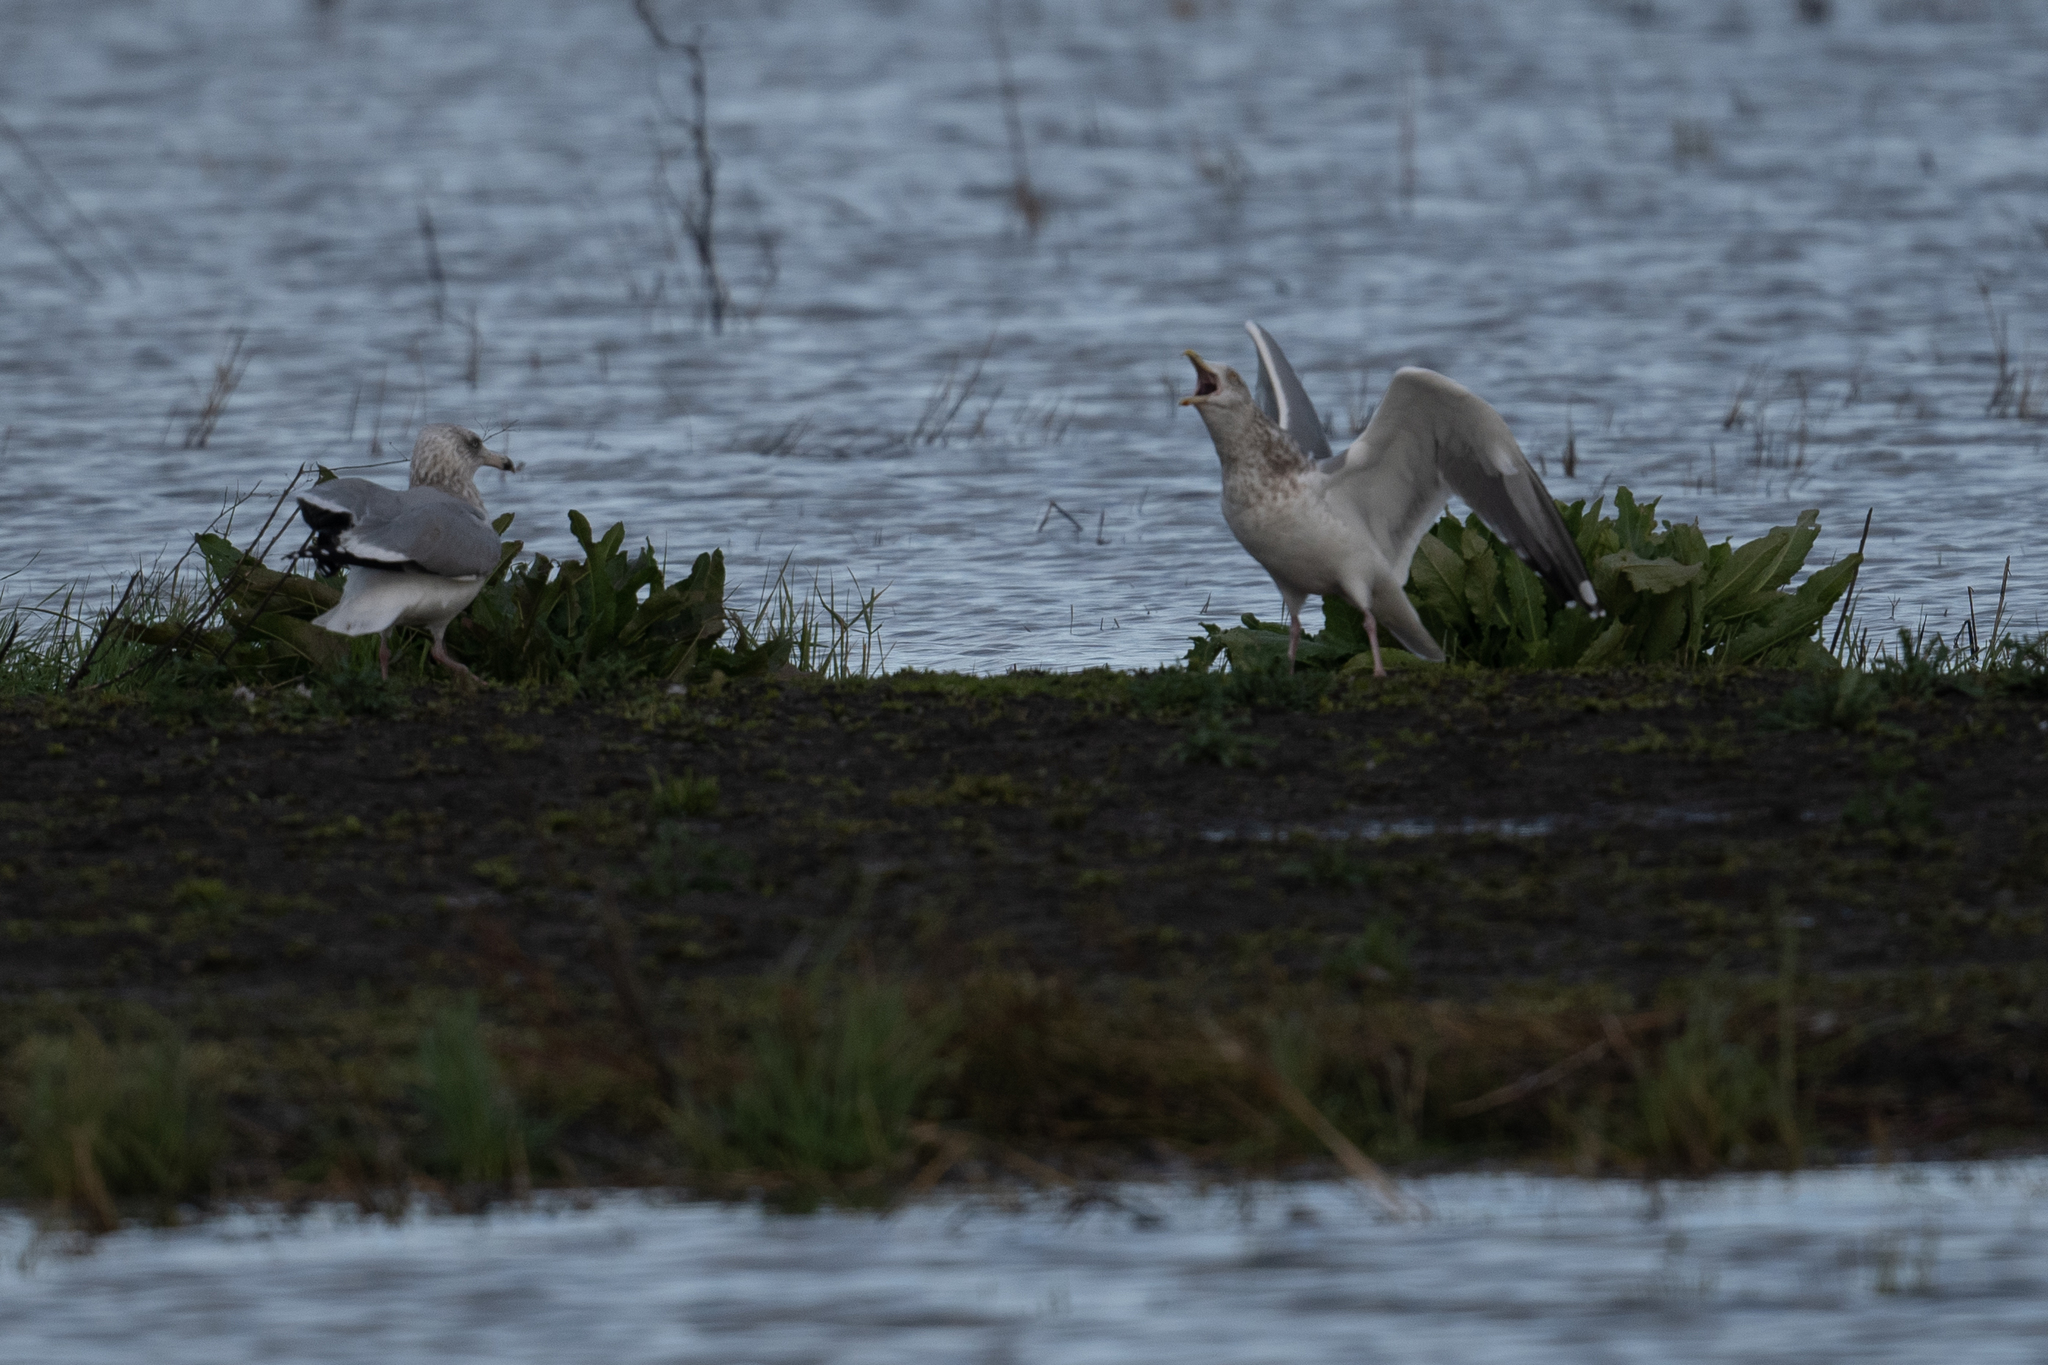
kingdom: Animalia
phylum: Chordata
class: Aves
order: Charadriiformes
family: Laridae
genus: Larus
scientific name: Larus argentatus
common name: Herring gull
